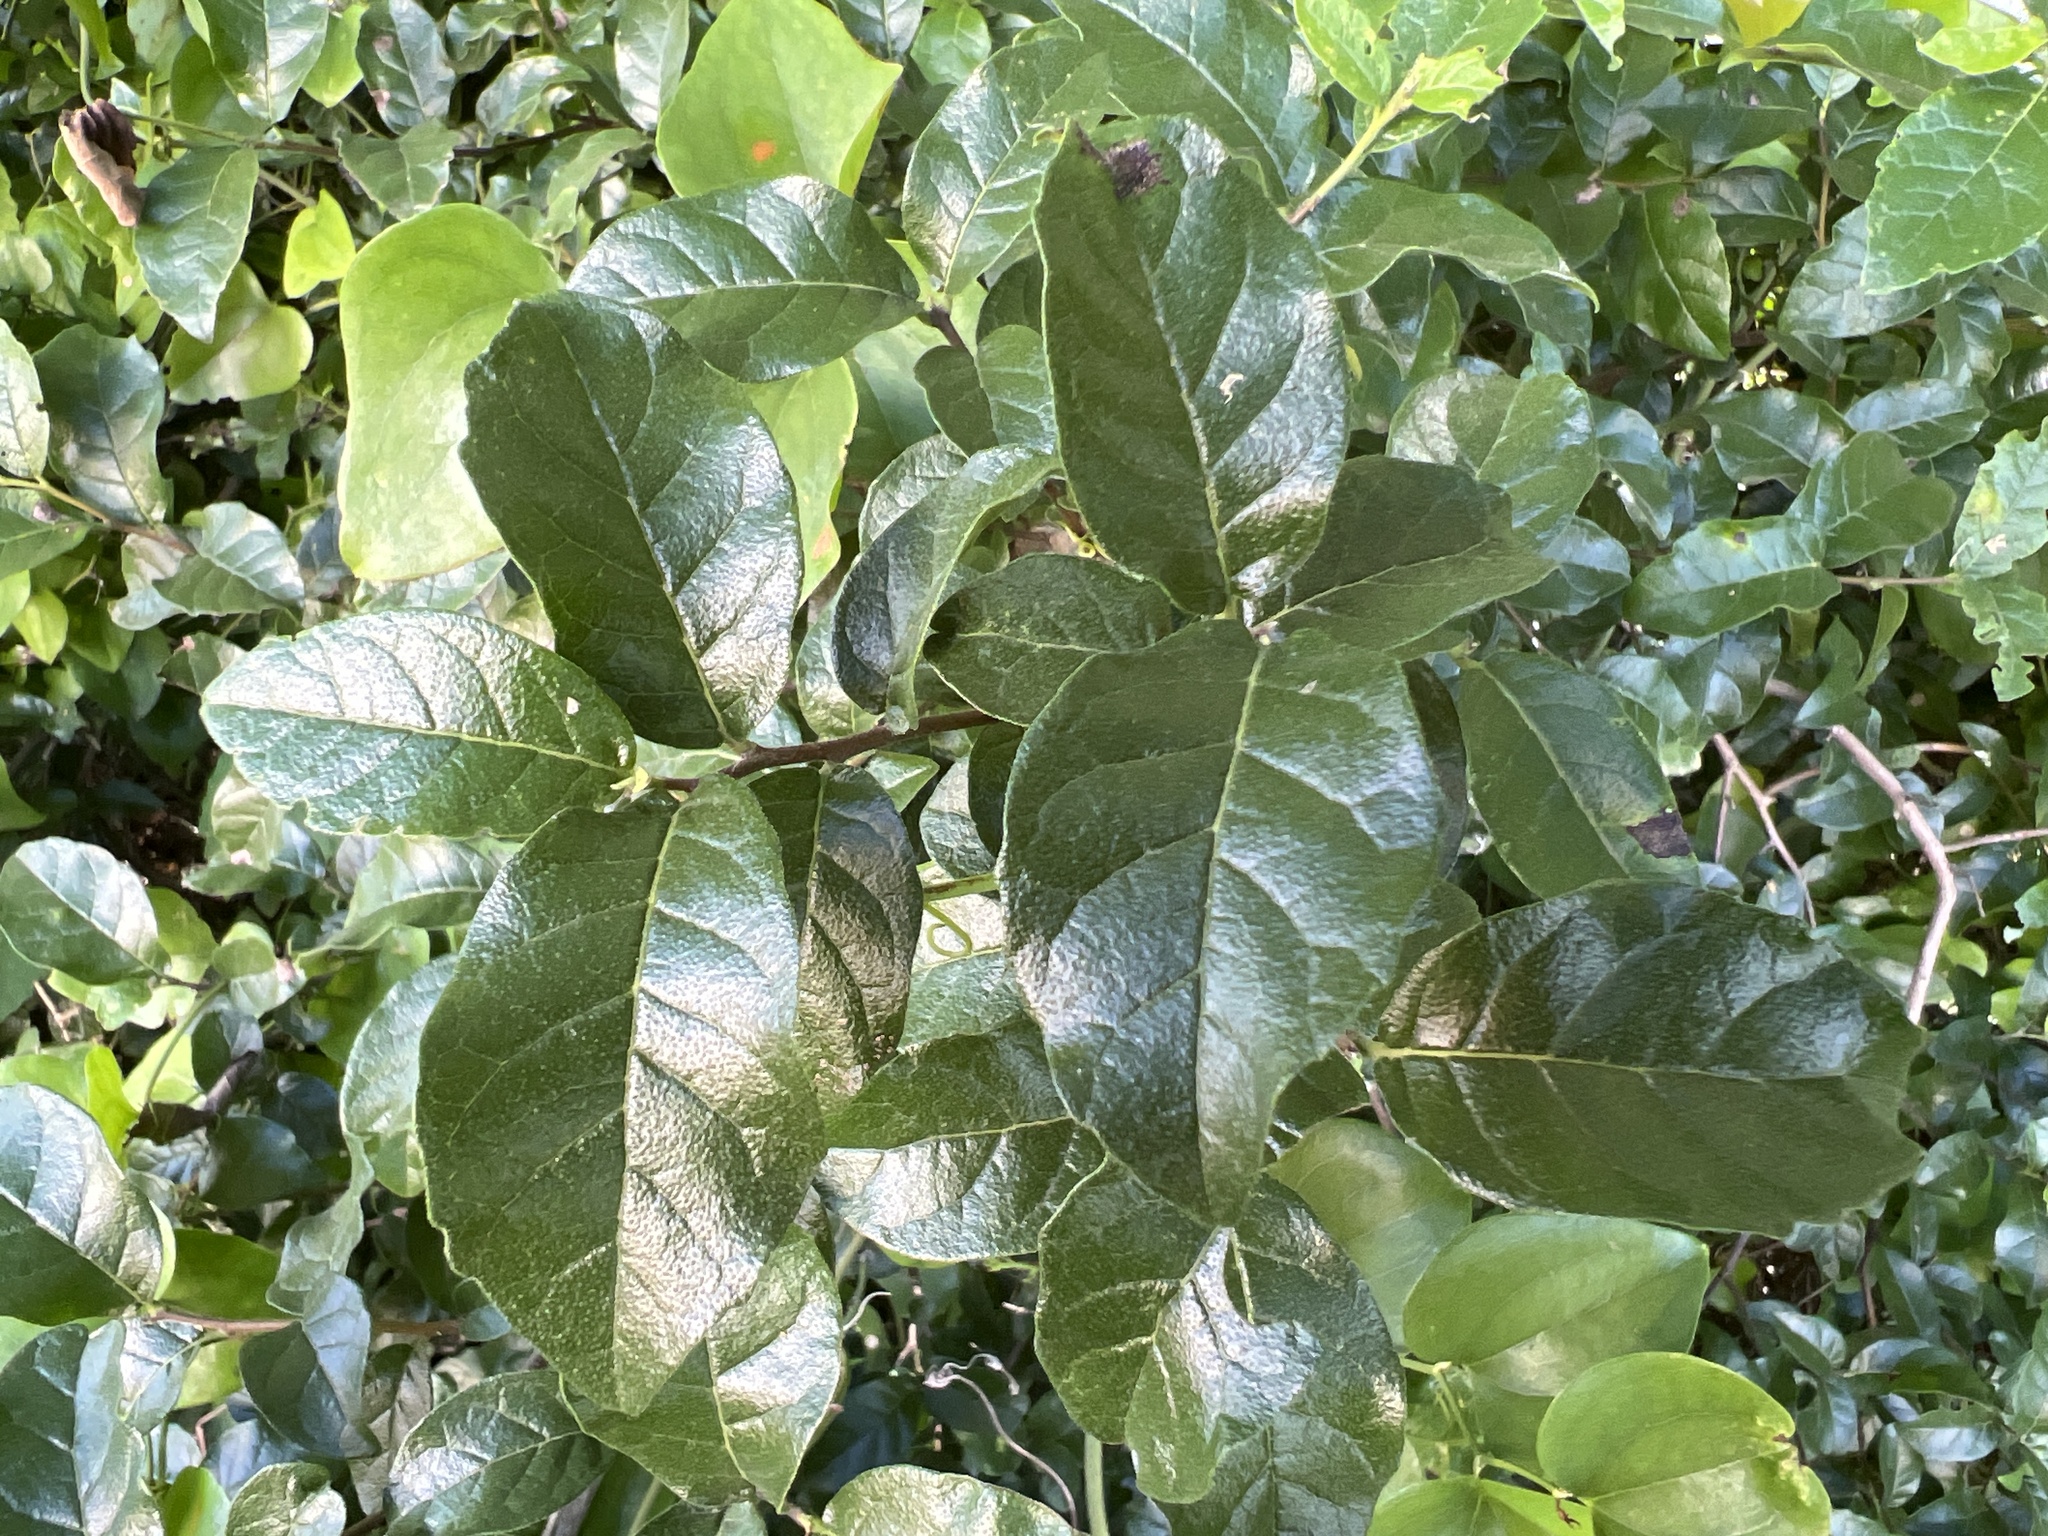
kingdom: Plantae
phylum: Tracheophyta
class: Magnoliopsida
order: Boraginales
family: Ehretiaceae
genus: Ehretia
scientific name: Ehretia anacua
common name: Sugarberry
